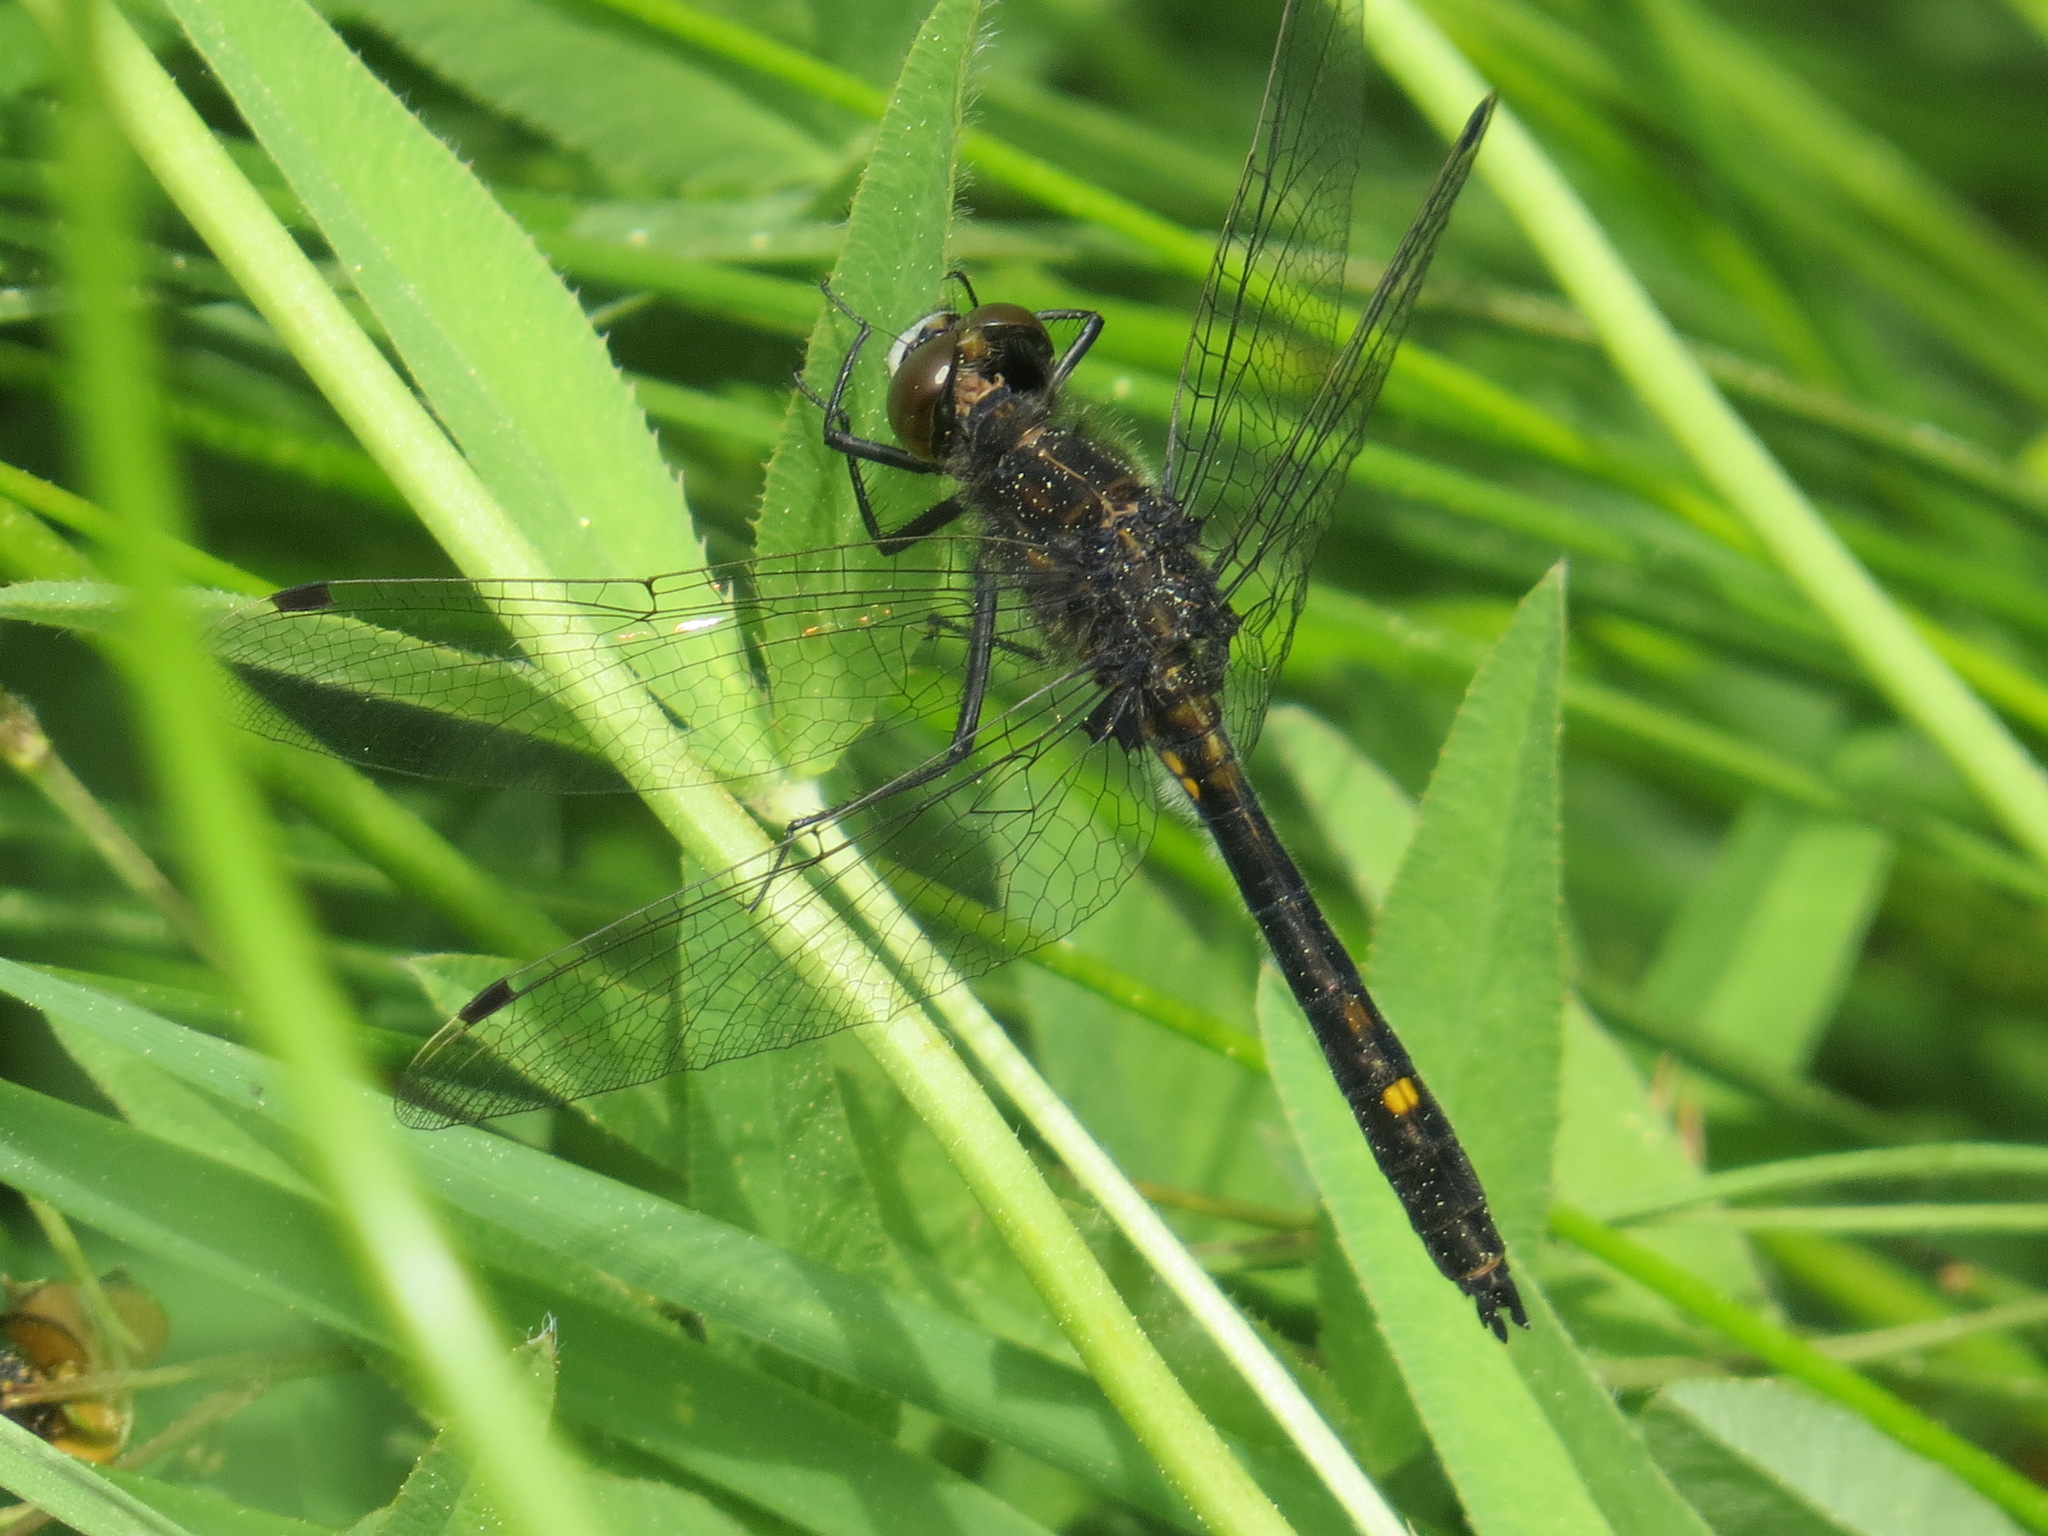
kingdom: Animalia
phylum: Arthropoda
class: Insecta
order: Odonata
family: Libellulidae
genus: Leucorrhinia
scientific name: Leucorrhinia intacta
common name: Dot-tailed whiteface
